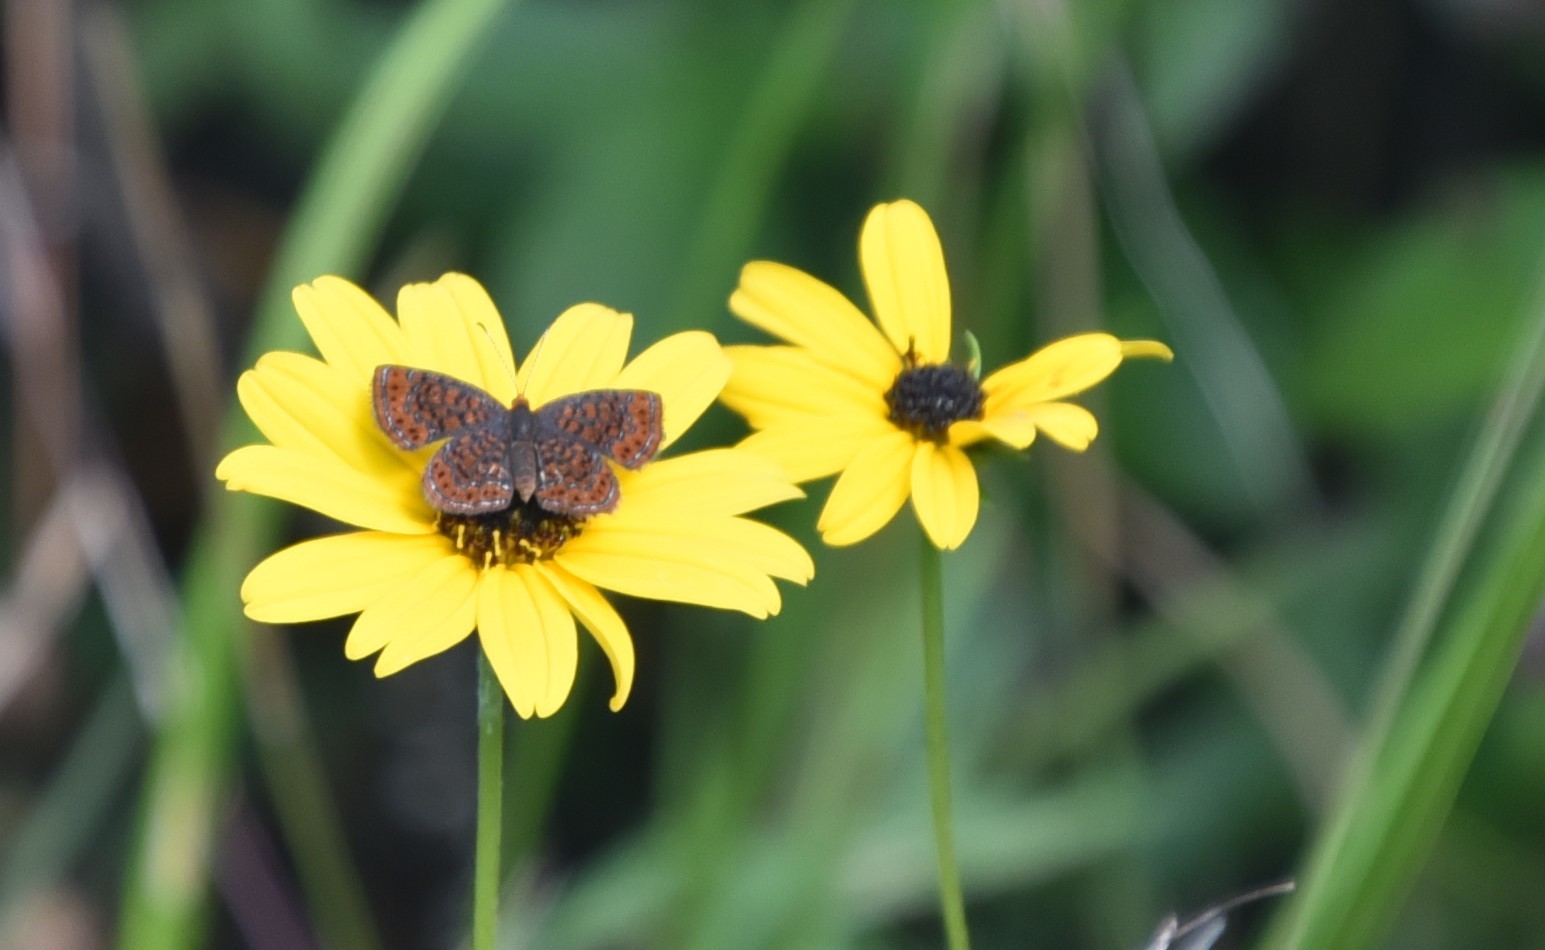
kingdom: Animalia
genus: Calephelis
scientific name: Calephelis virginiensis
